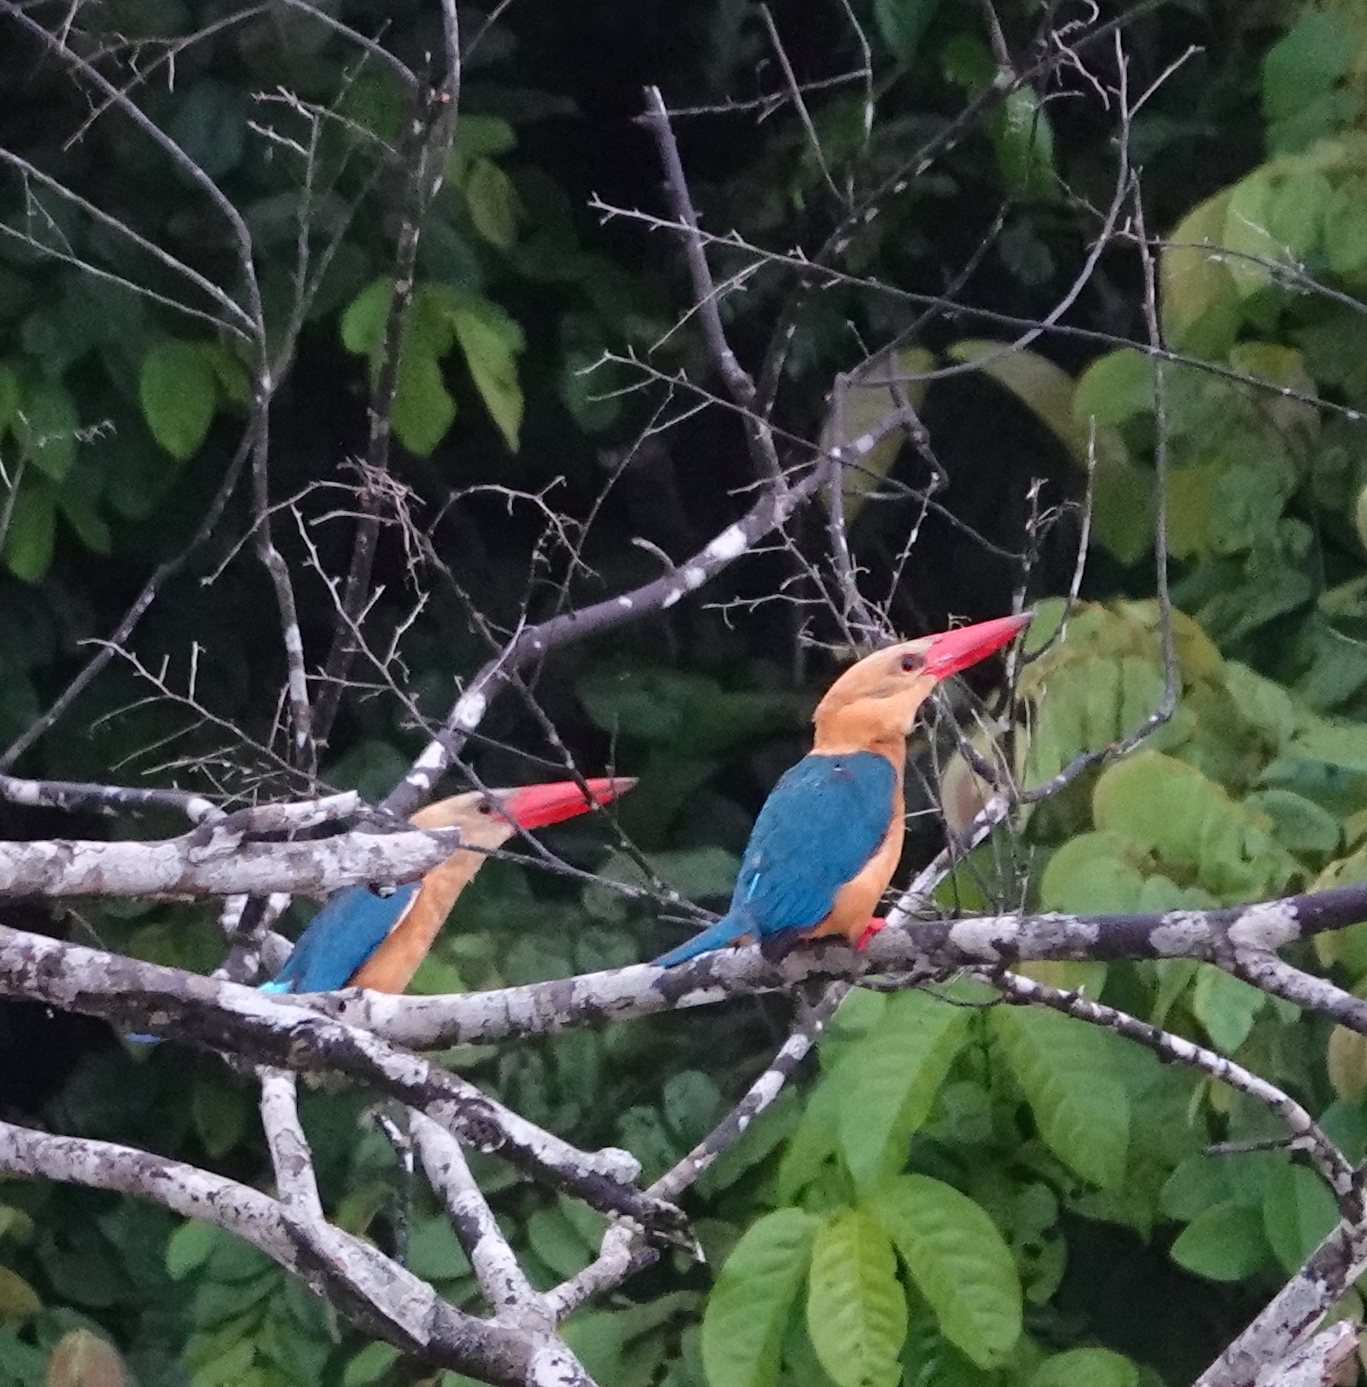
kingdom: Animalia
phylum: Chordata
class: Aves
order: Coraciiformes
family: Alcedinidae
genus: Pelargopsis
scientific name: Pelargopsis capensis
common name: Stork-billed kingfisher
